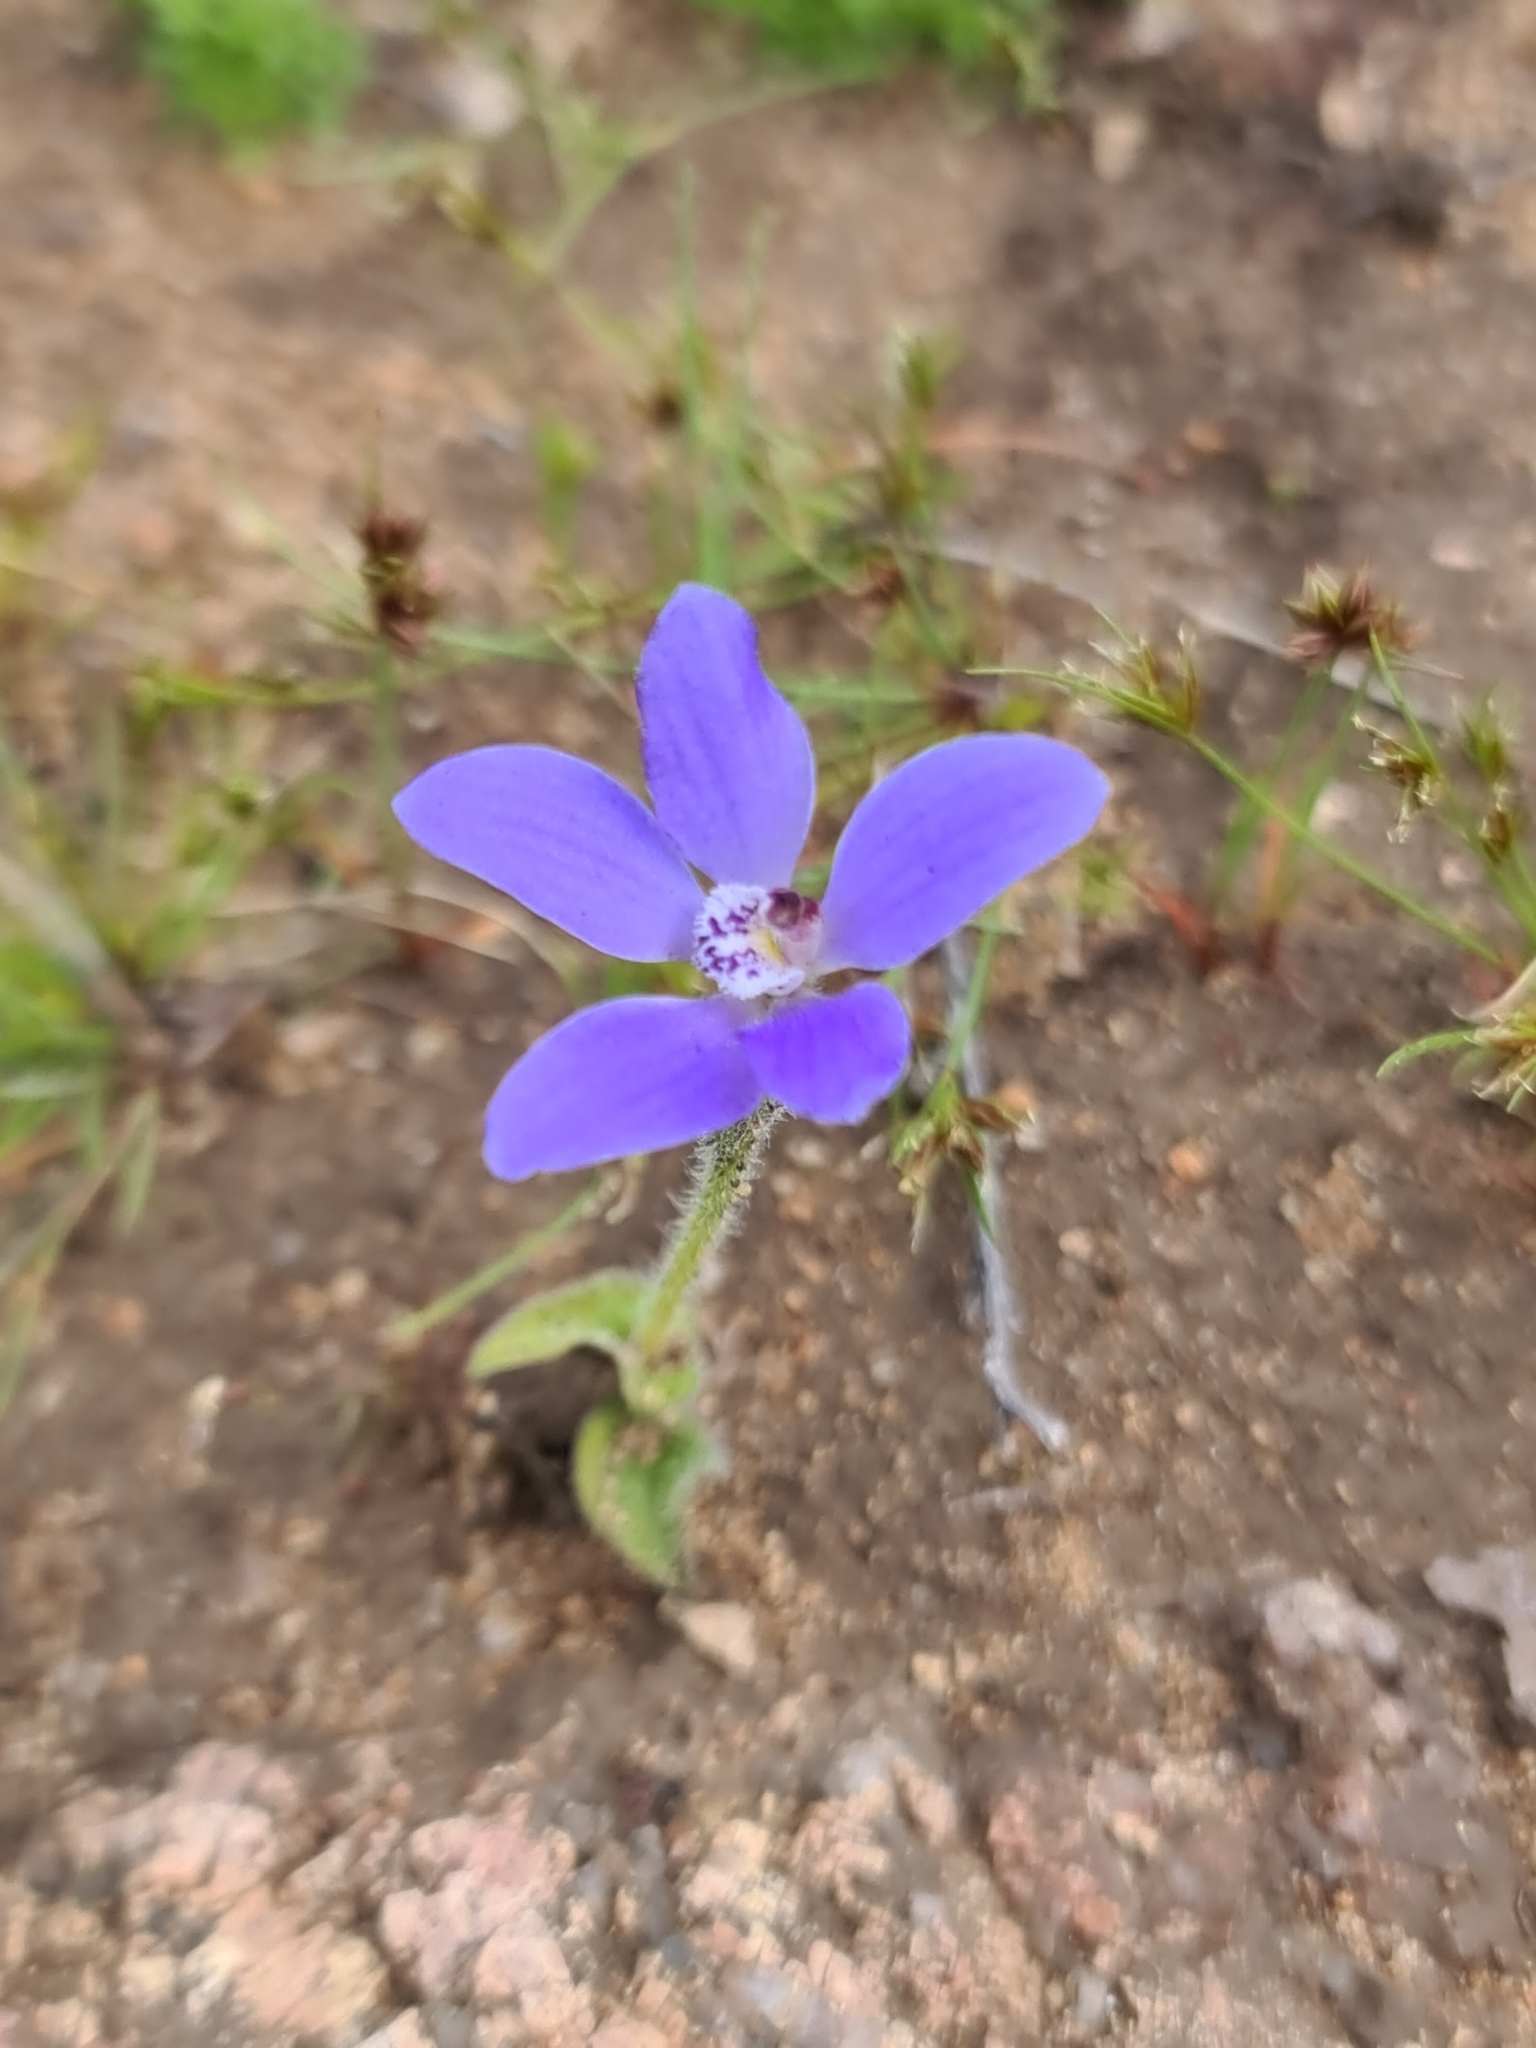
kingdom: Plantae
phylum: Tracheophyta
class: Liliopsida
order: Asparagales
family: Orchidaceae
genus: Caladenia
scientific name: Caladenia gemmata
